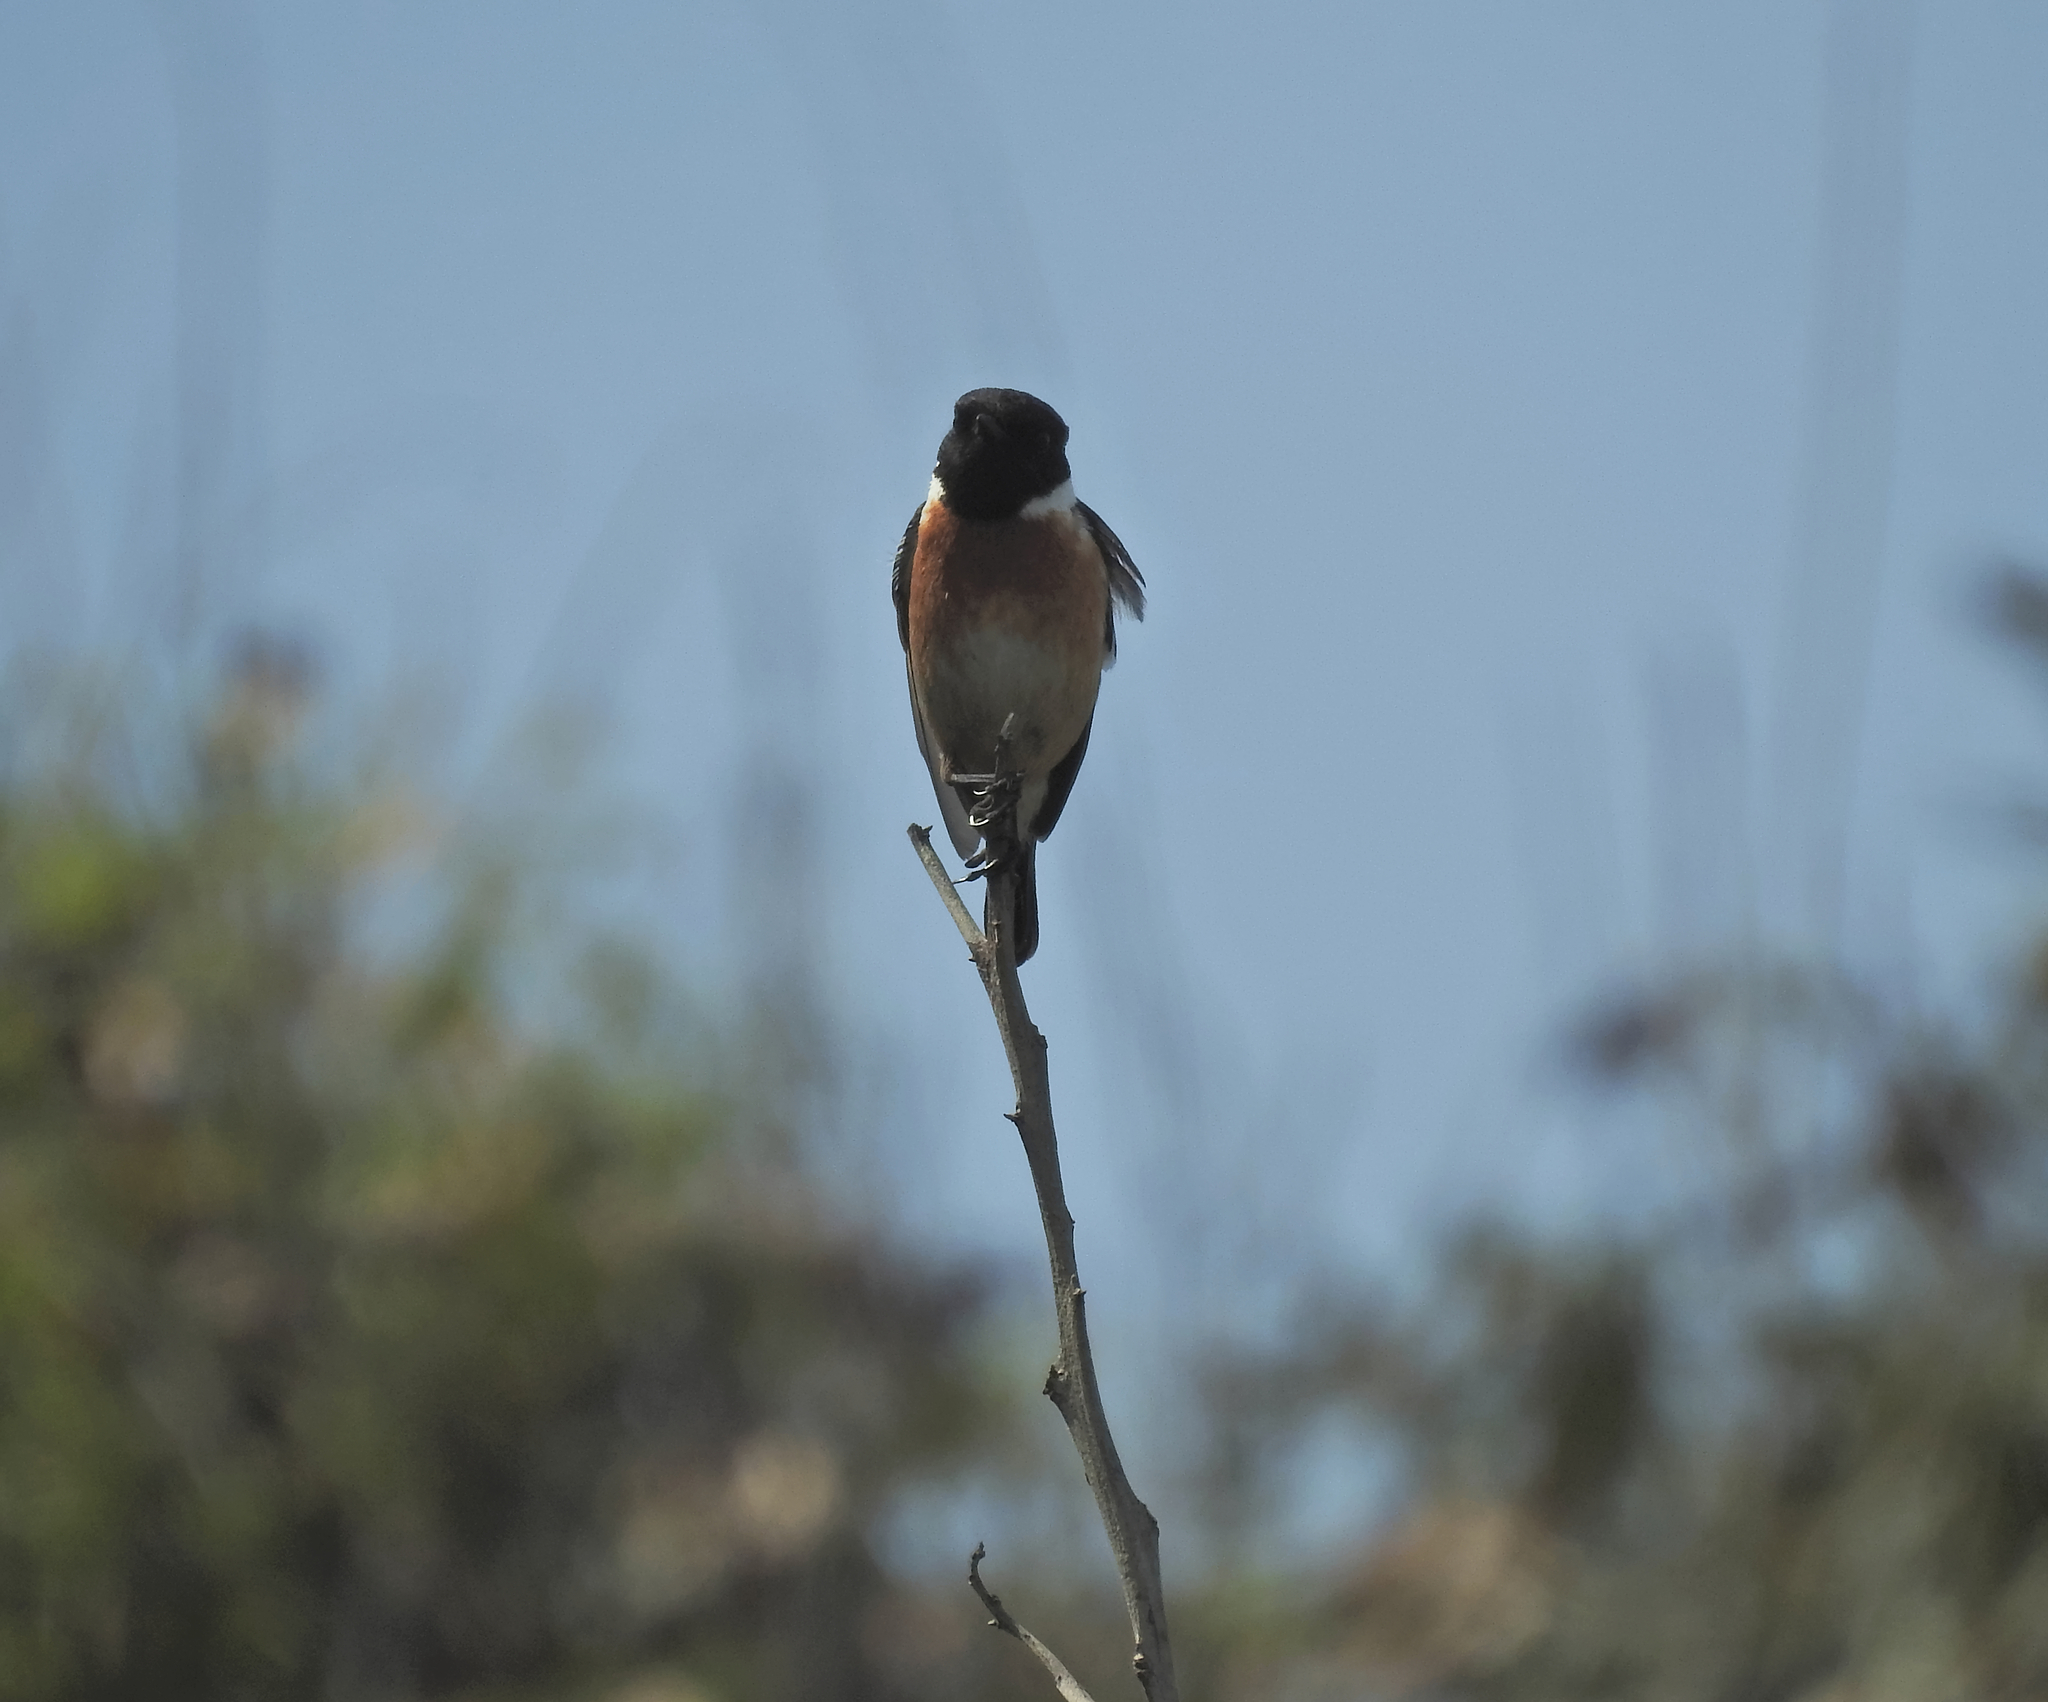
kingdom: Animalia
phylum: Chordata
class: Aves
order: Passeriformes
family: Muscicapidae
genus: Saxicola
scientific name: Saxicola rubicola
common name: European stonechat
